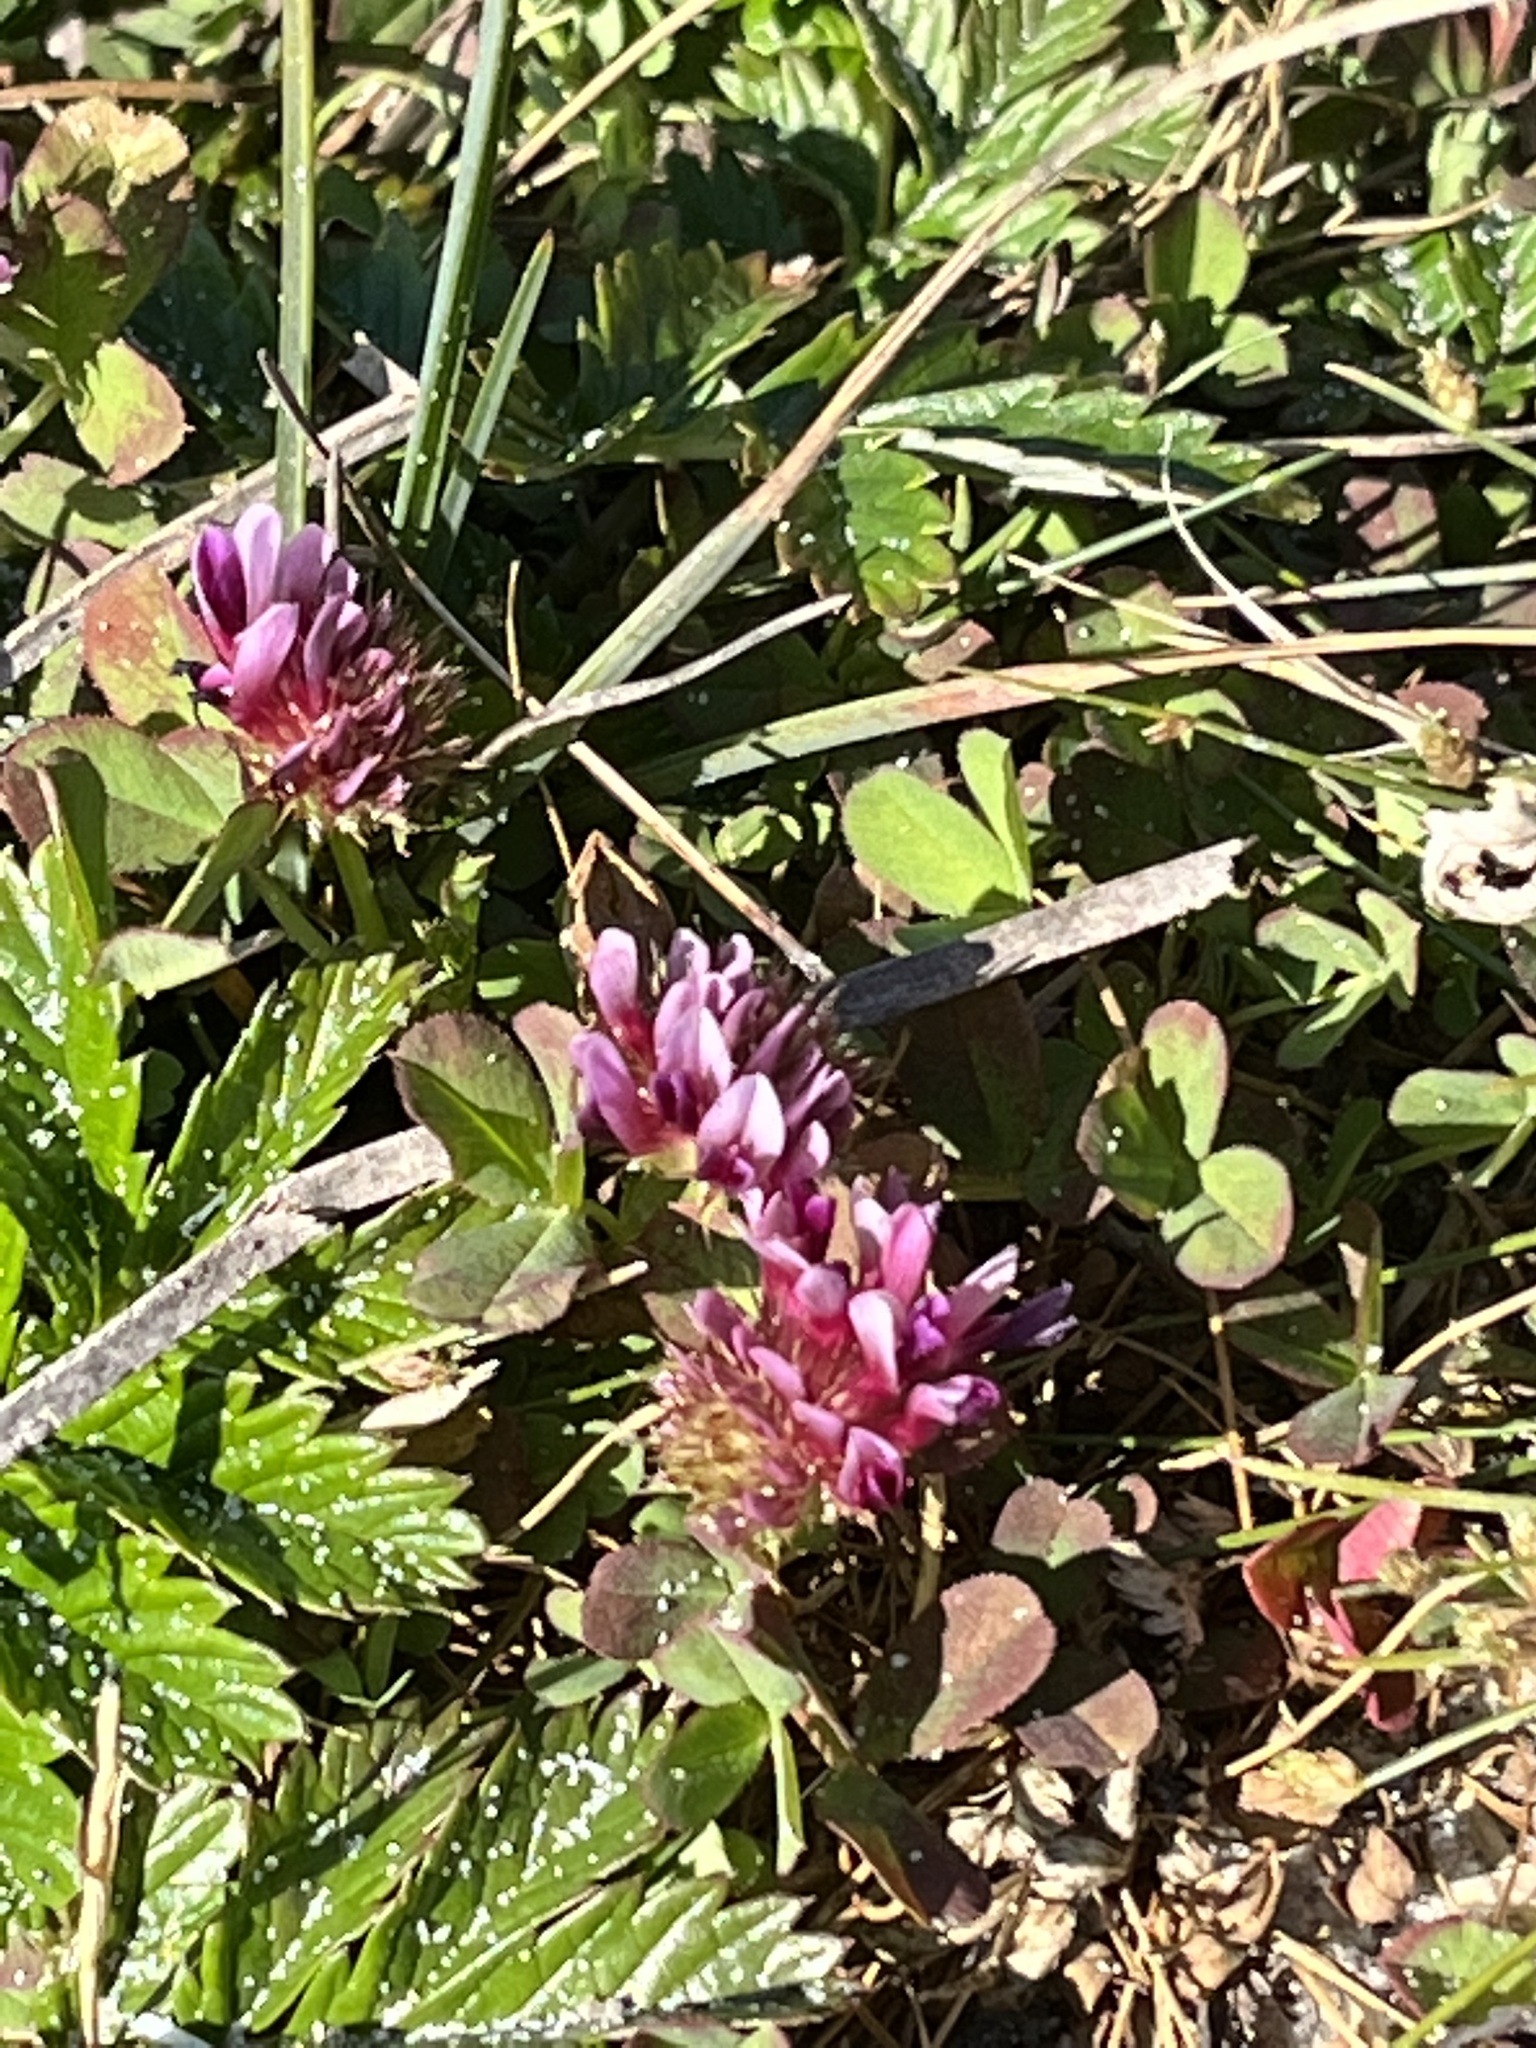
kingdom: Plantae
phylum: Tracheophyta
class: Magnoliopsida
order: Fabales
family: Fabaceae
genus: Trifolium
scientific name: Trifolium wormskioldii
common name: Springbank clover
